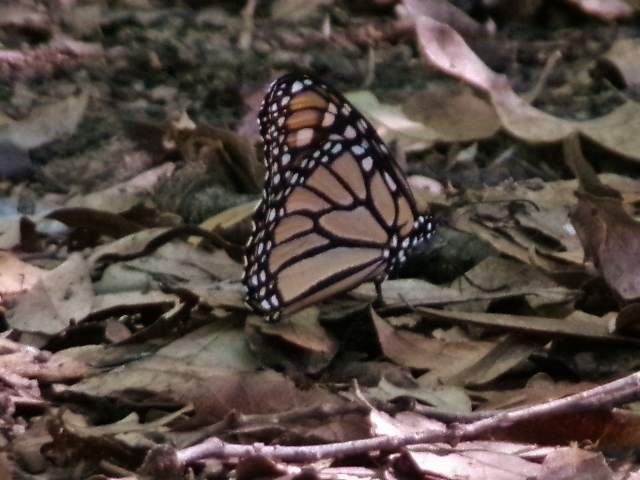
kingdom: Animalia
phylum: Arthropoda
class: Insecta
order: Lepidoptera
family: Nymphalidae
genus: Danaus
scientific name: Danaus plexippus
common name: Monarch
